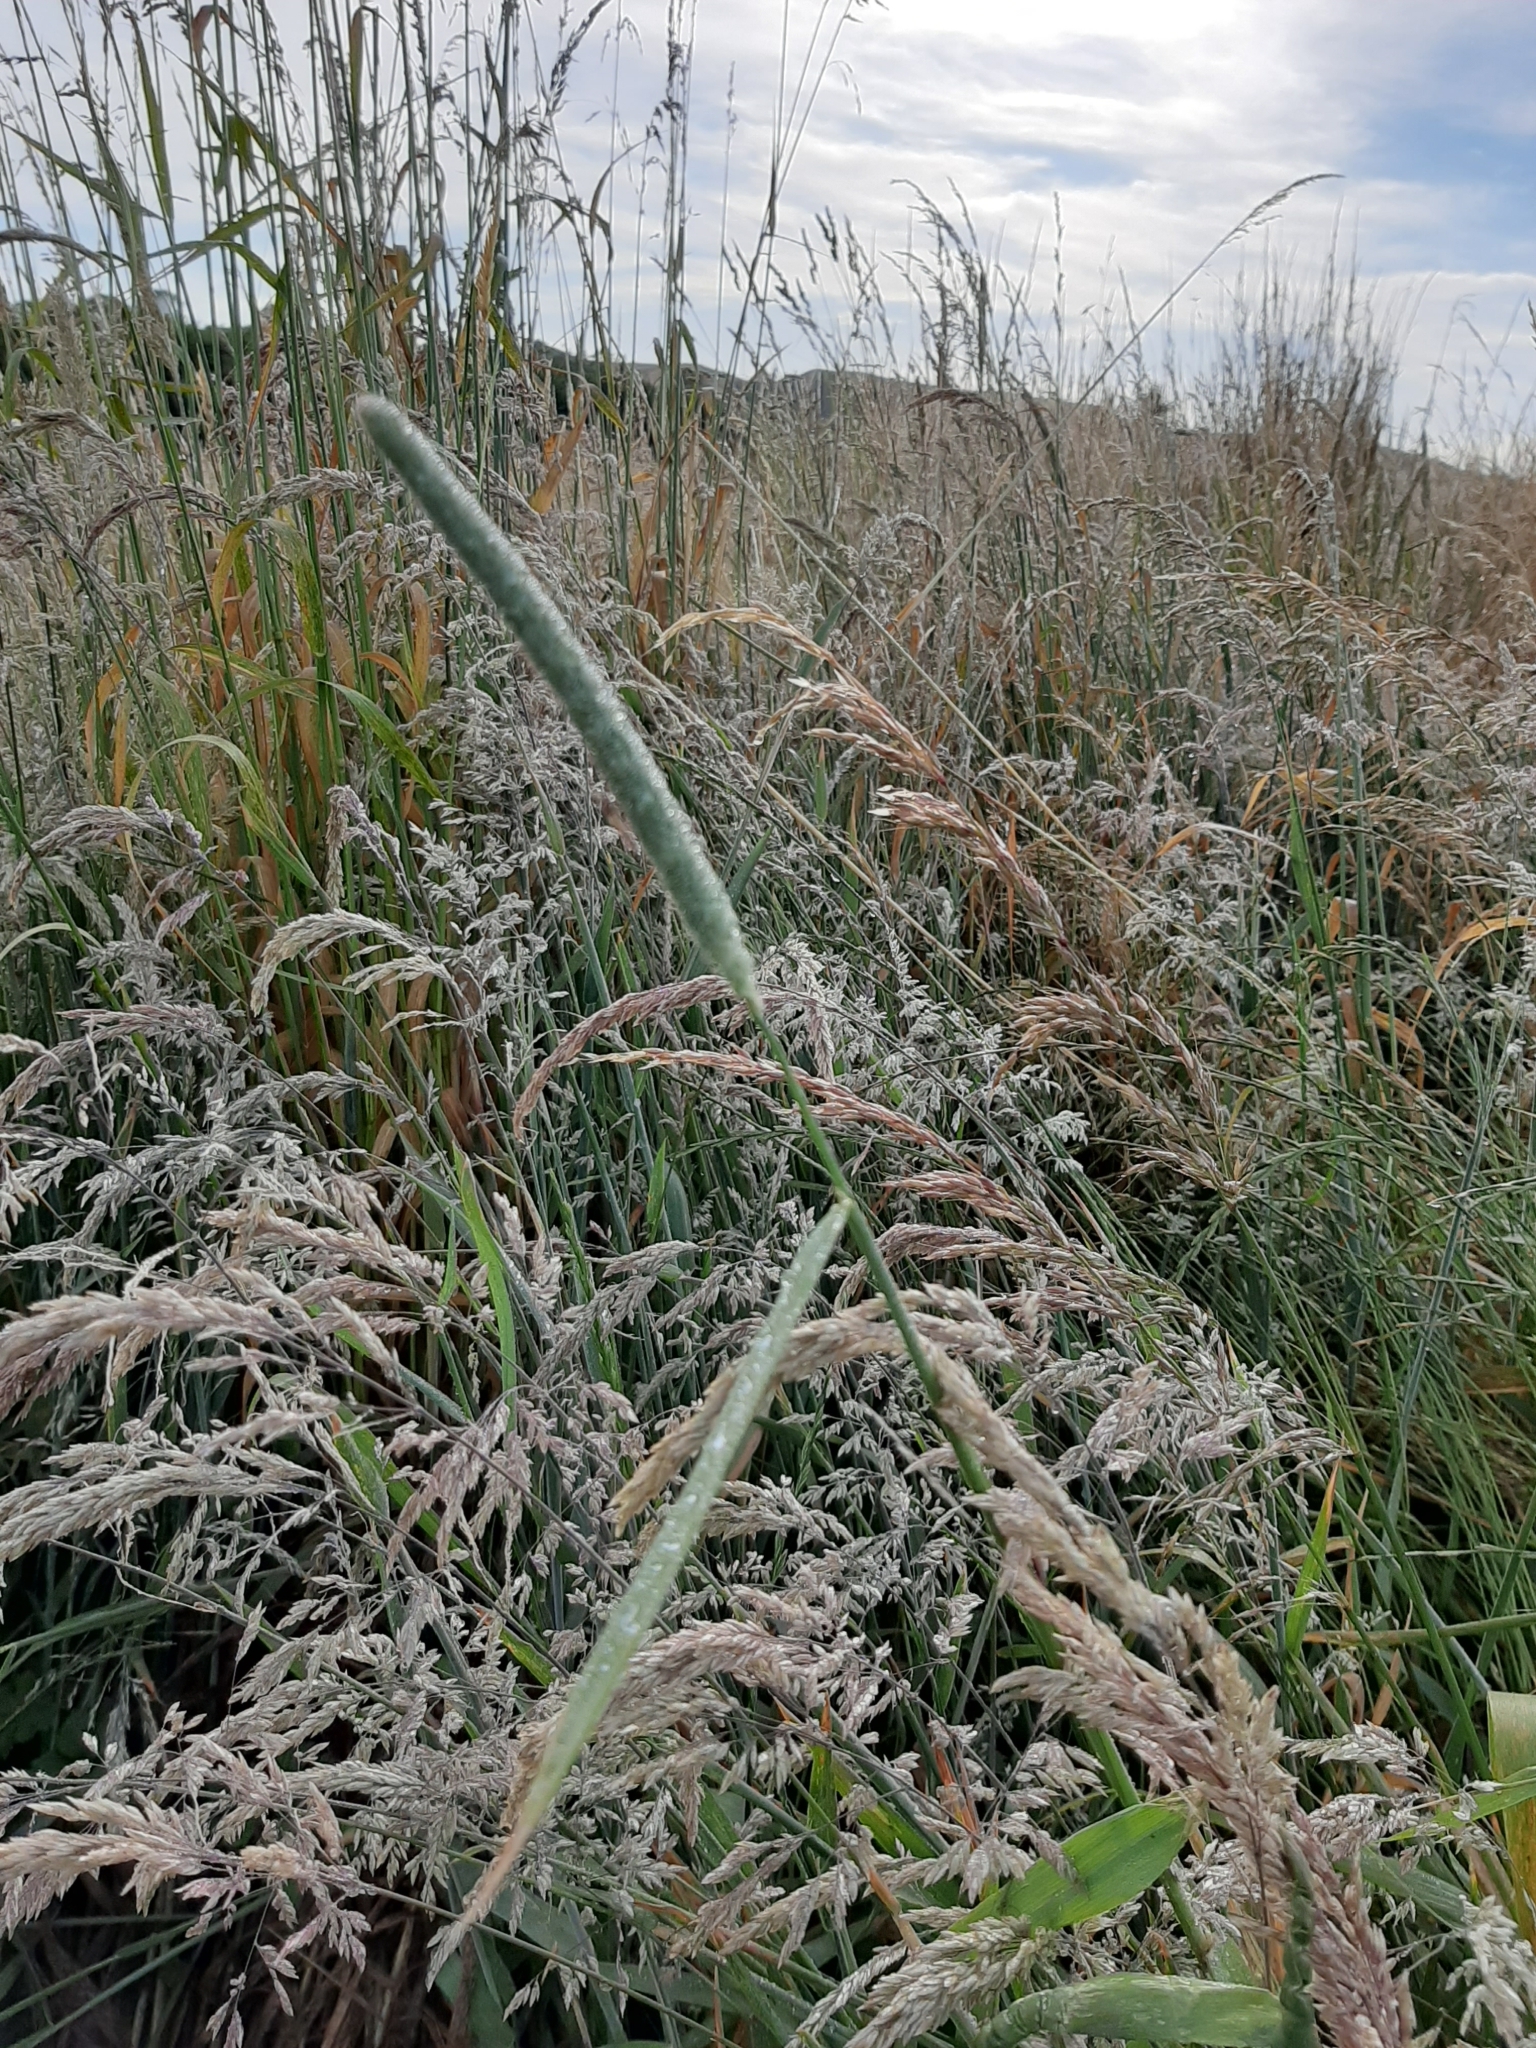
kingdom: Plantae
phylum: Tracheophyta
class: Liliopsida
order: Poales
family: Poaceae
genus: Phleum
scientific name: Phleum pratense
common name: Timothy grass
